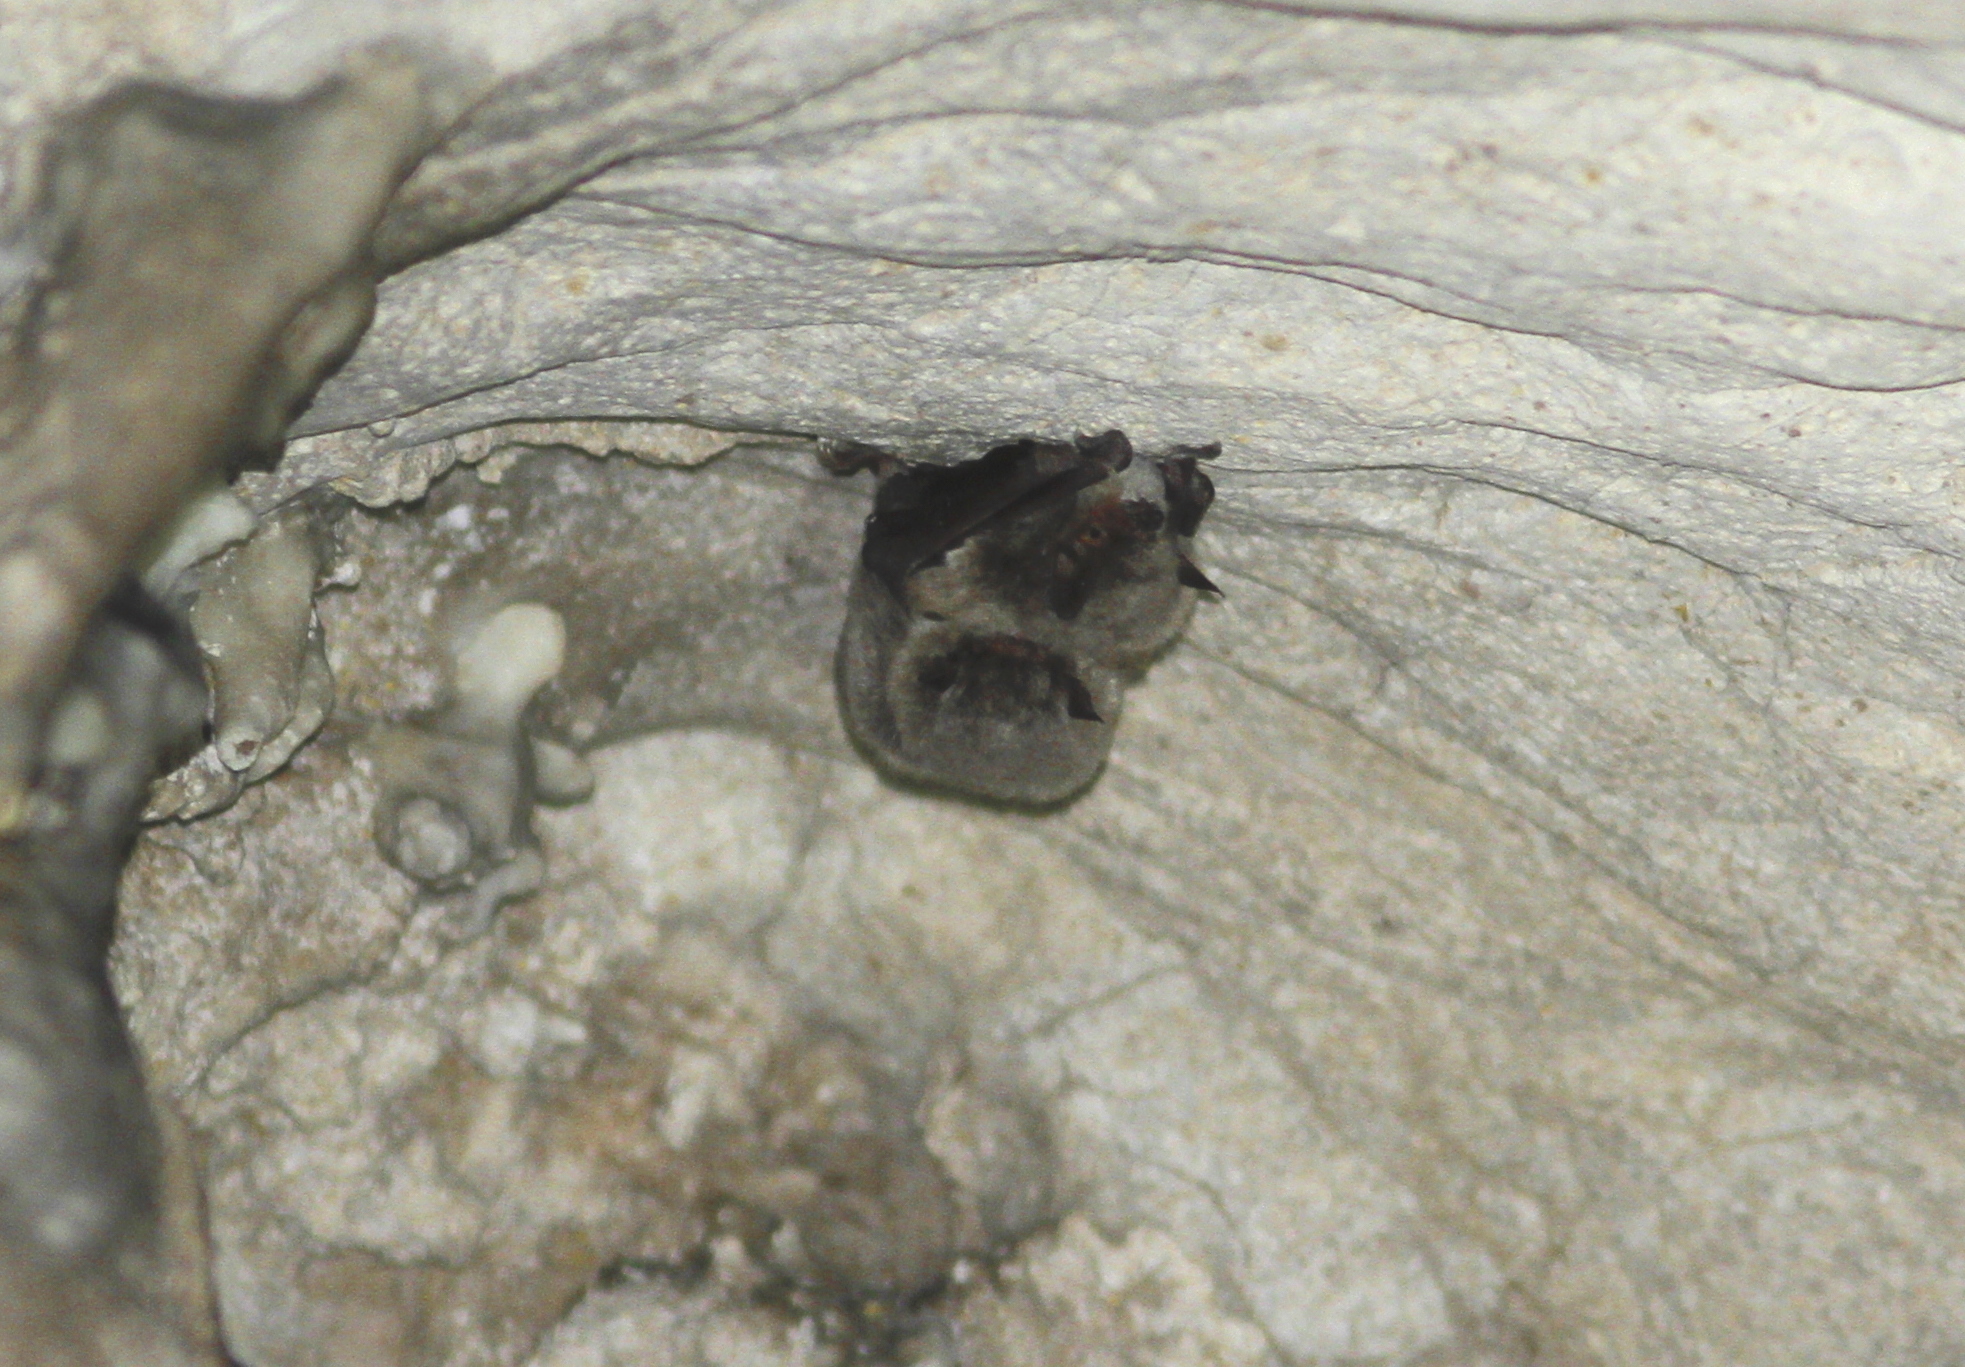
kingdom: Animalia
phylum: Chordata
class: Mammalia
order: Chiroptera
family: Vespertilionidae
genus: Myotis
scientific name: Myotis capaccinii
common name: Long-fingered bat
